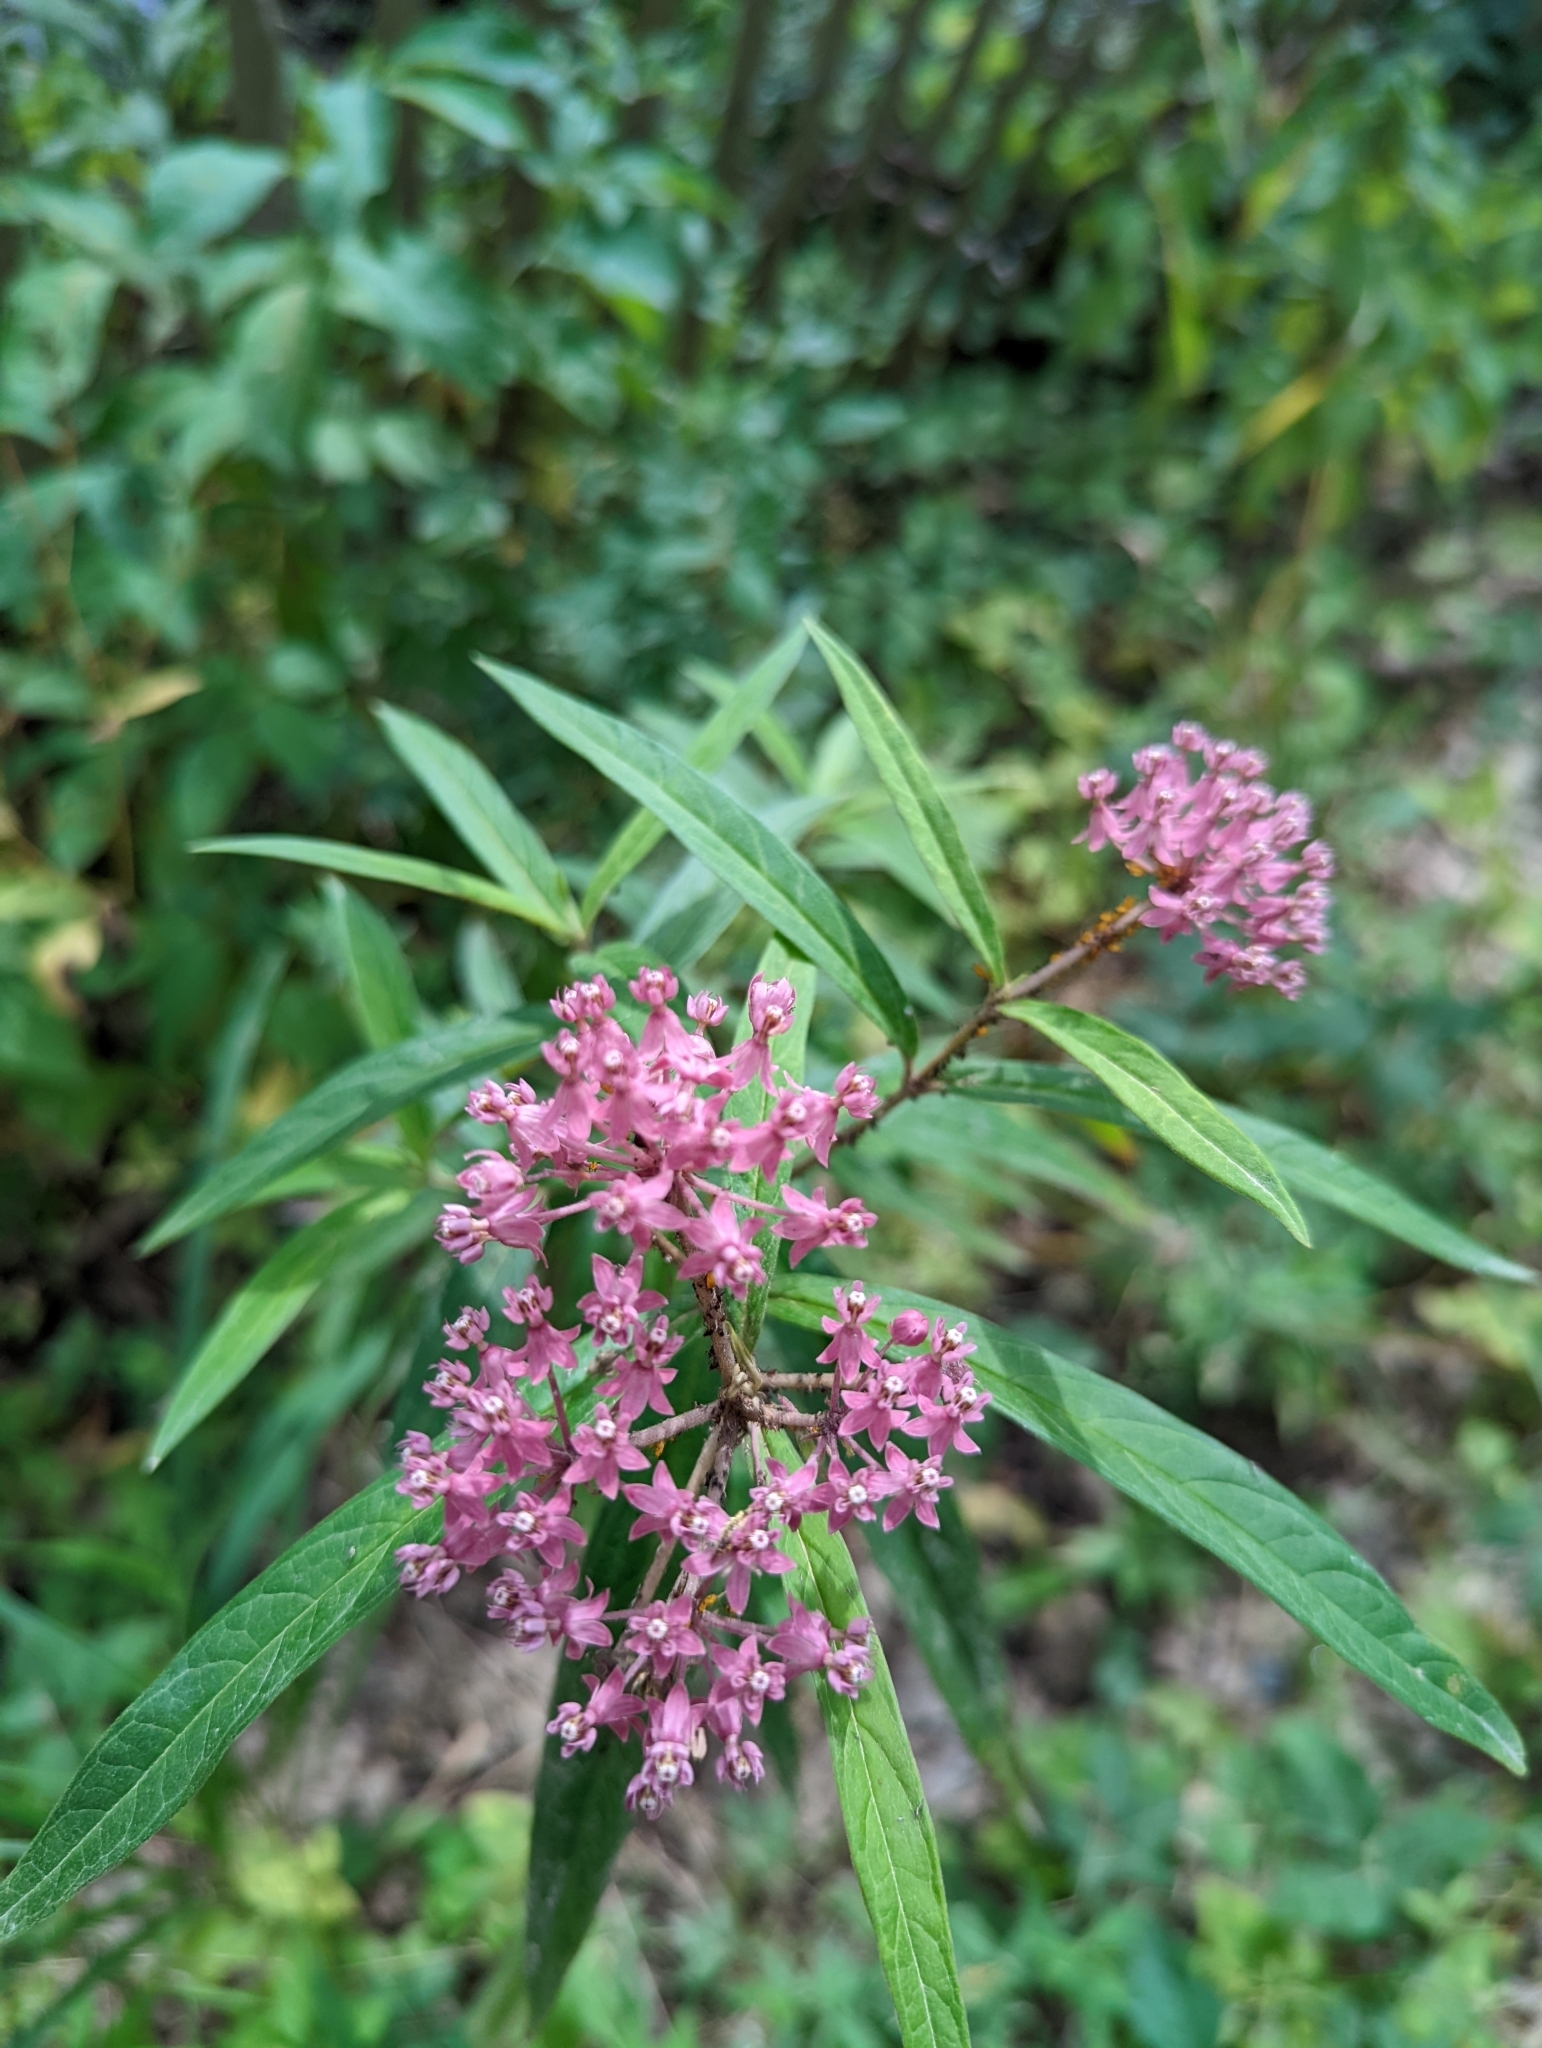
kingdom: Plantae
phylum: Tracheophyta
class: Magnoliopsida
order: Gentianales
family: Apocynaceae
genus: Asclepias
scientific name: Asclepias incarnata
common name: Swamp milkweed
